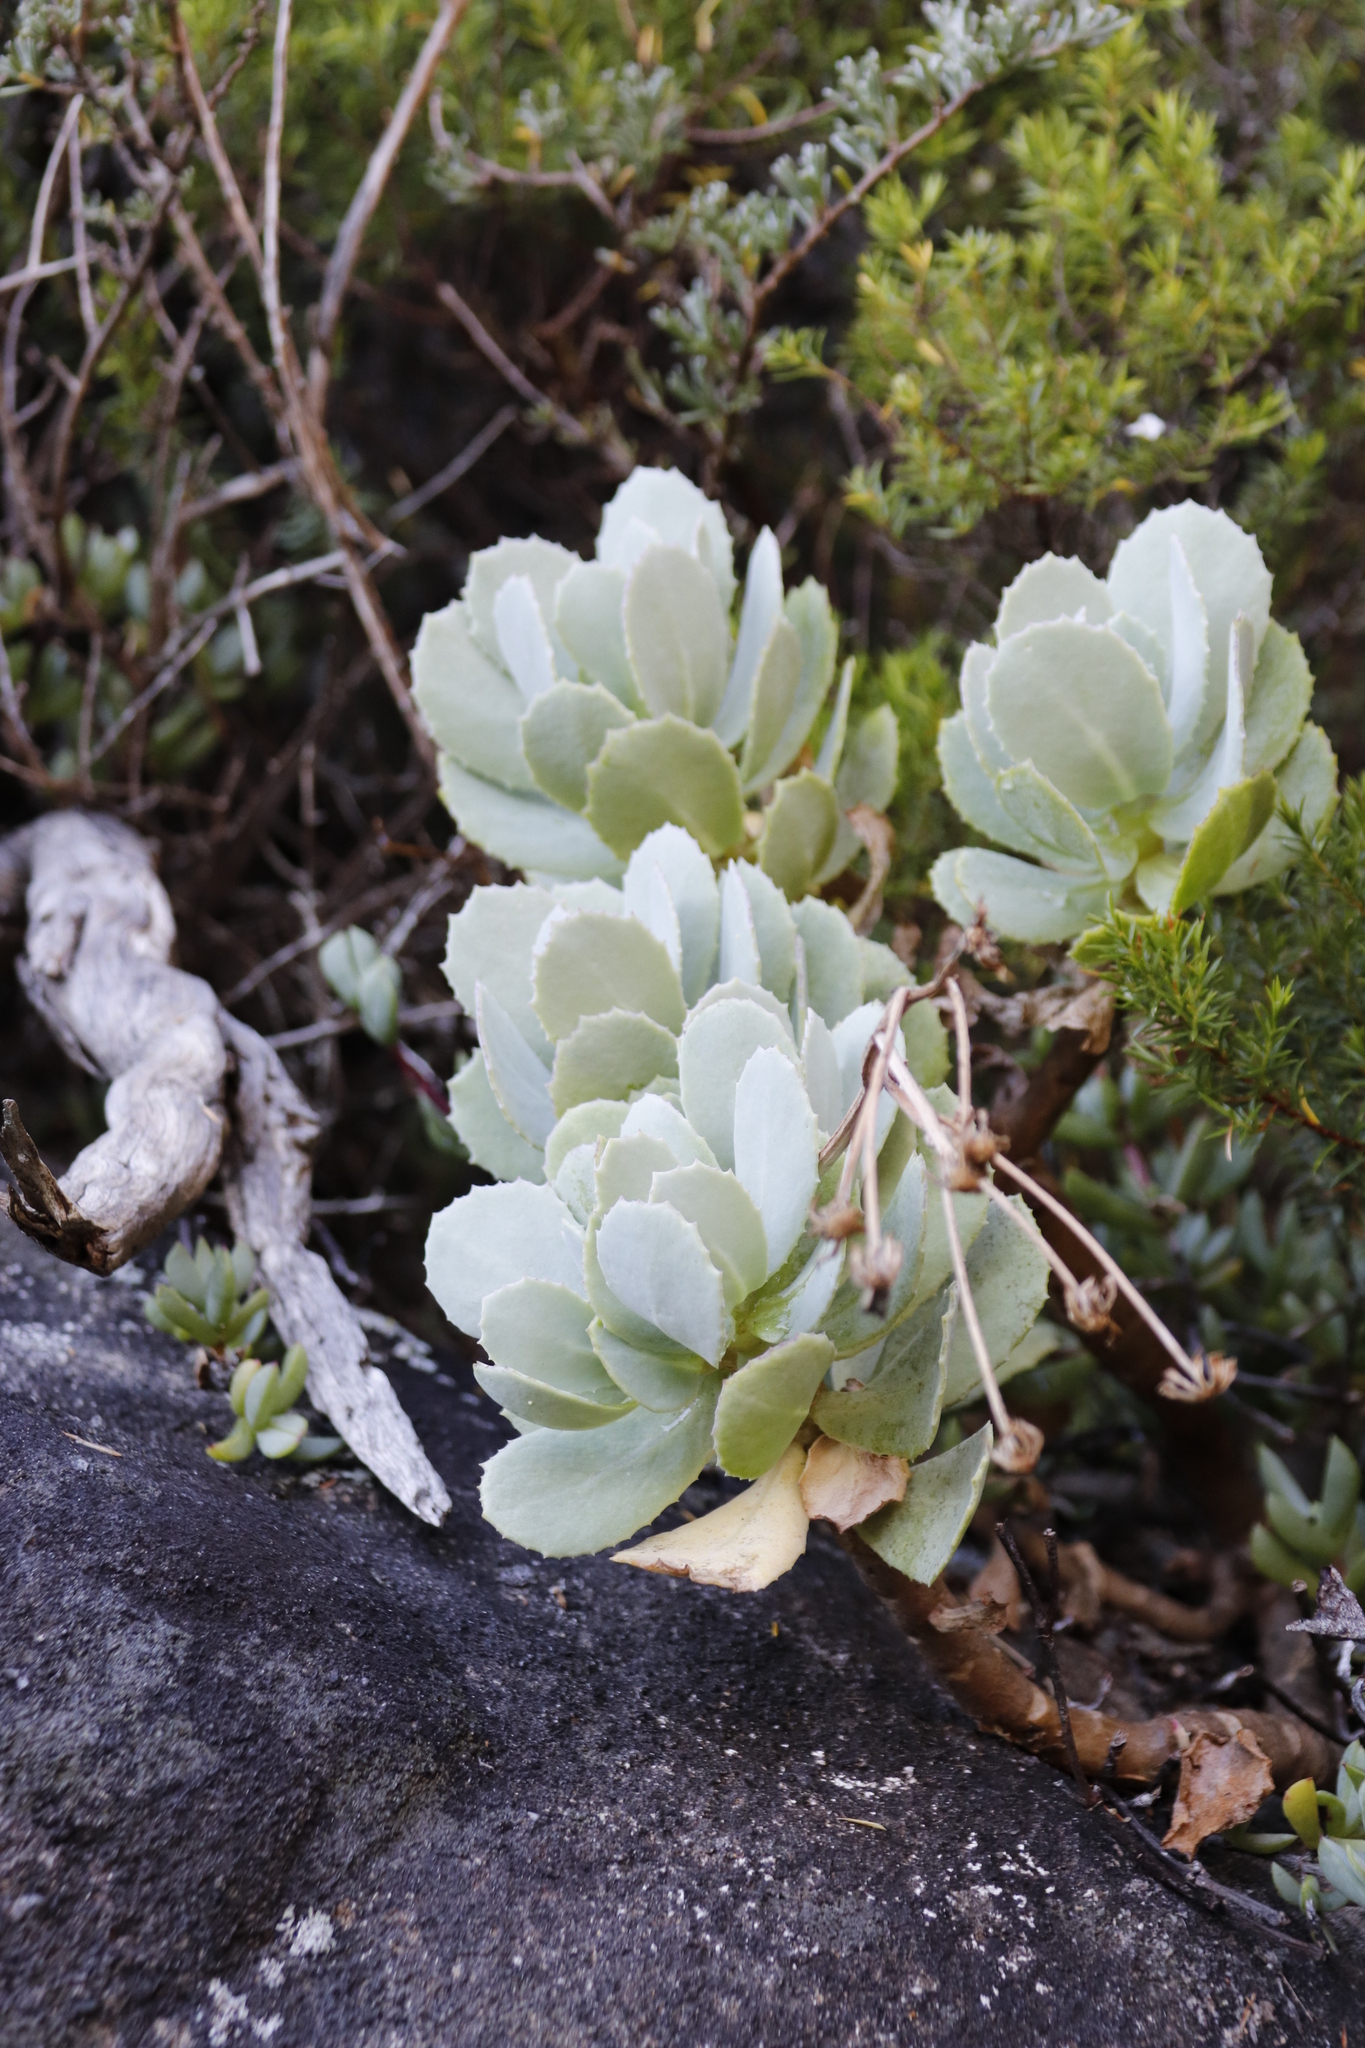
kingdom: Plantae
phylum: Tracheophyta
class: Magnoliopsida
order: Asterales
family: Asteraceae
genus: Othonna
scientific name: Othonna dentata
